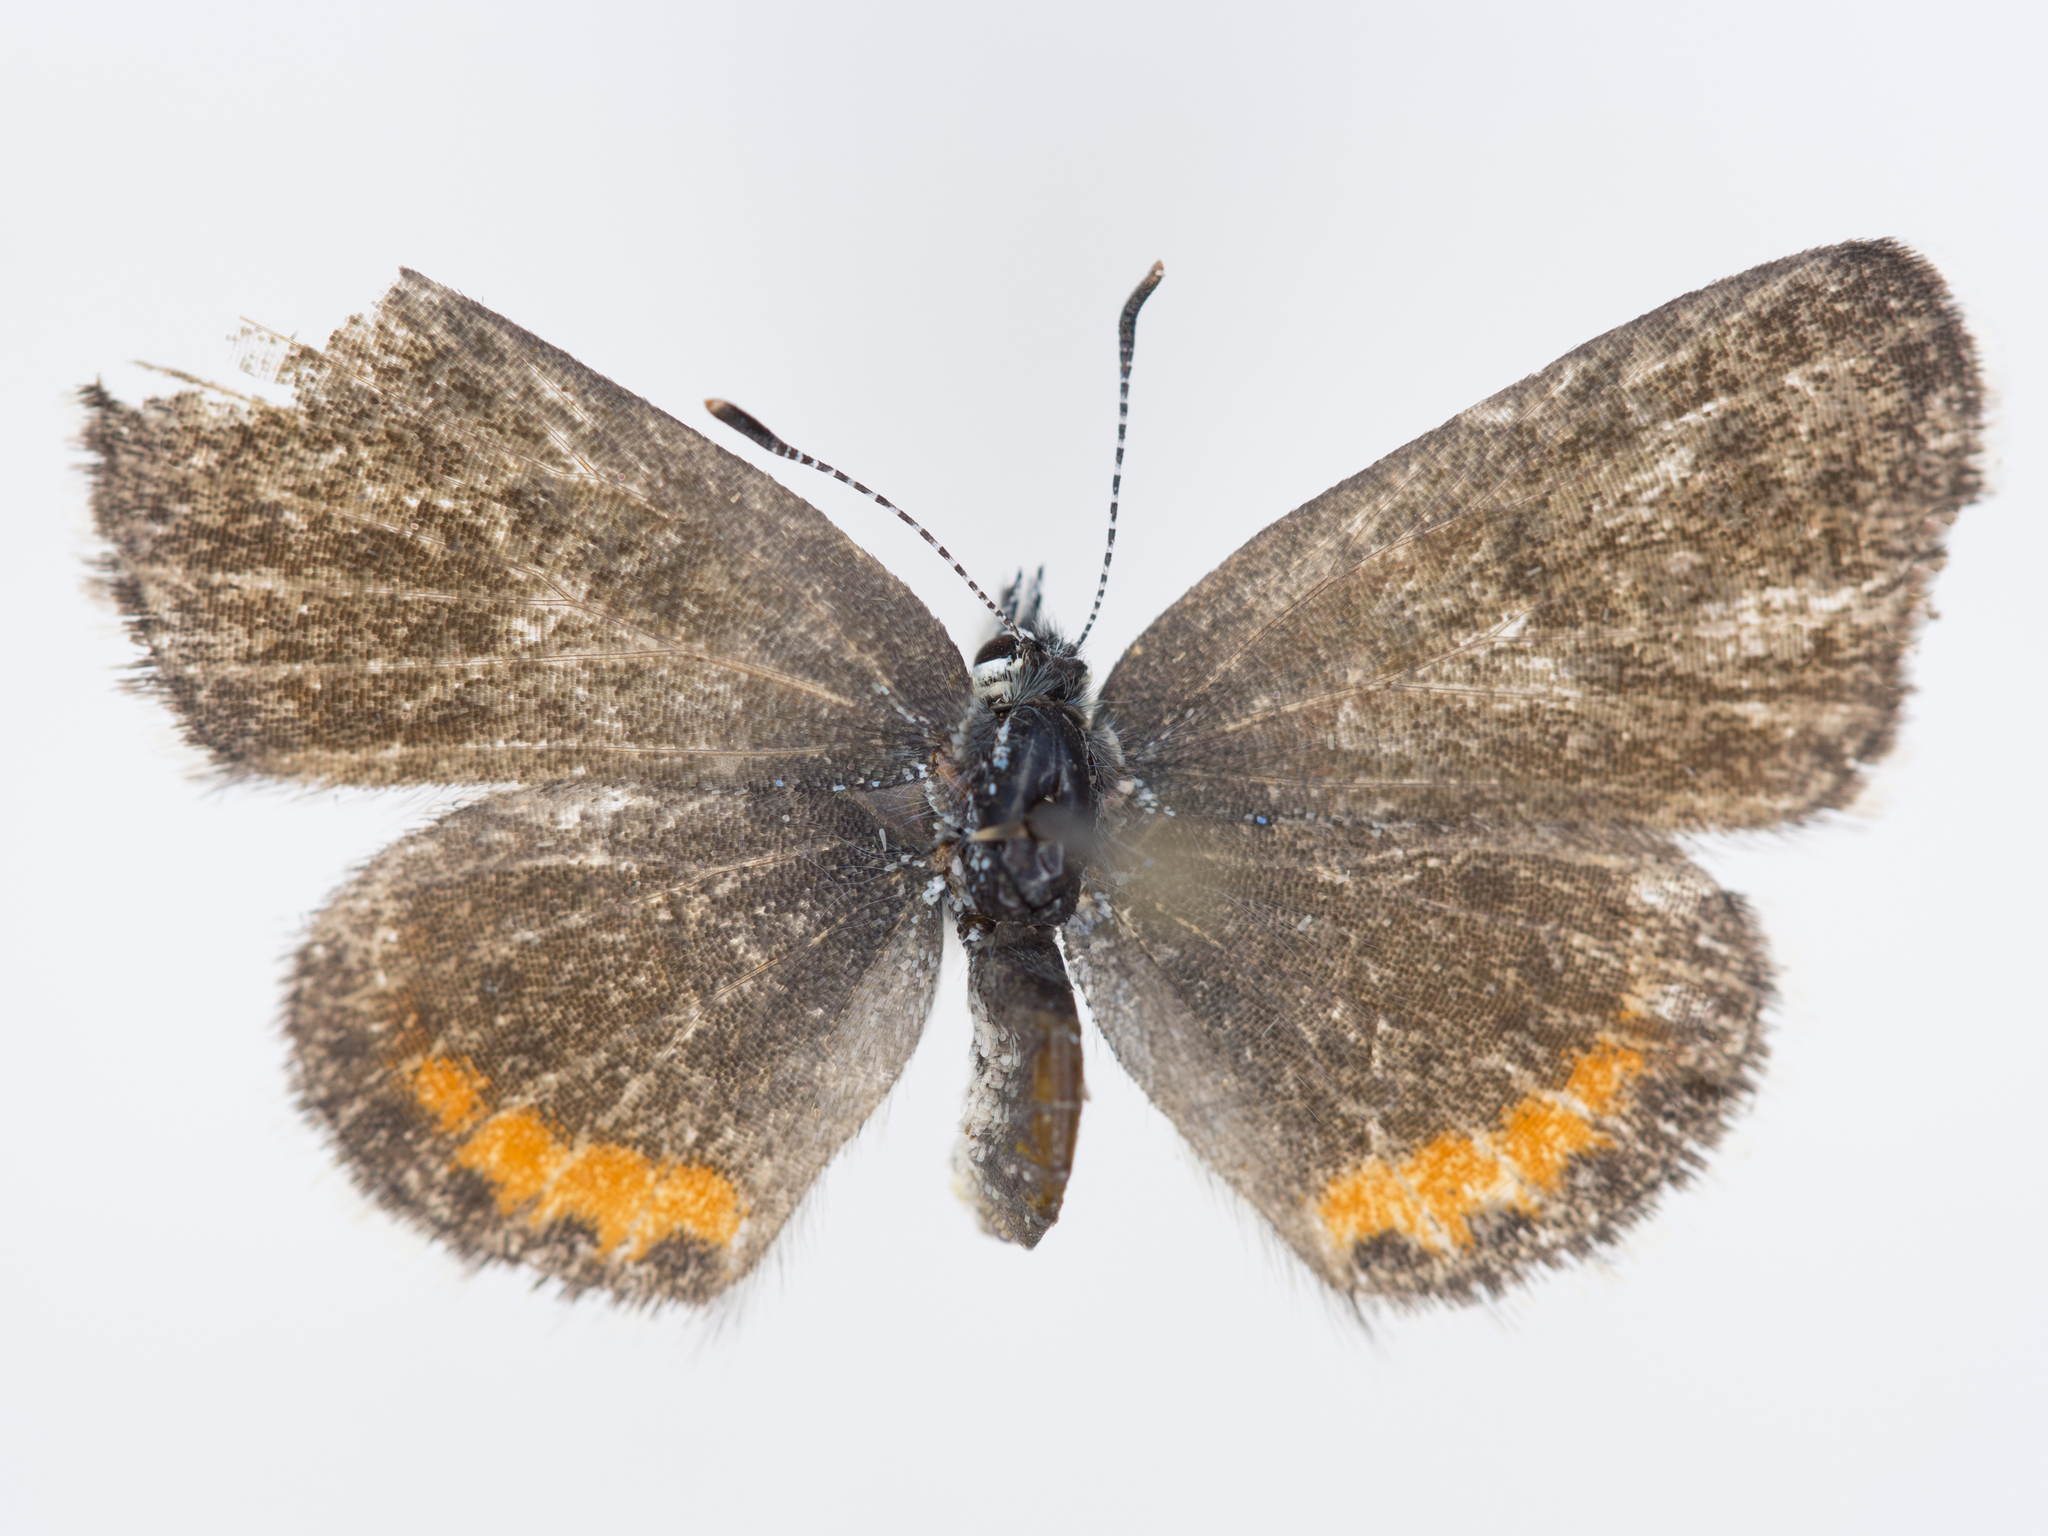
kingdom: Animalia
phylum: Arthropoda
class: Insecta
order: Lepidoptera
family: Lycaenidae
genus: Euphilotes
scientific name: Euphilotes enoptes
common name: Dotted blue
